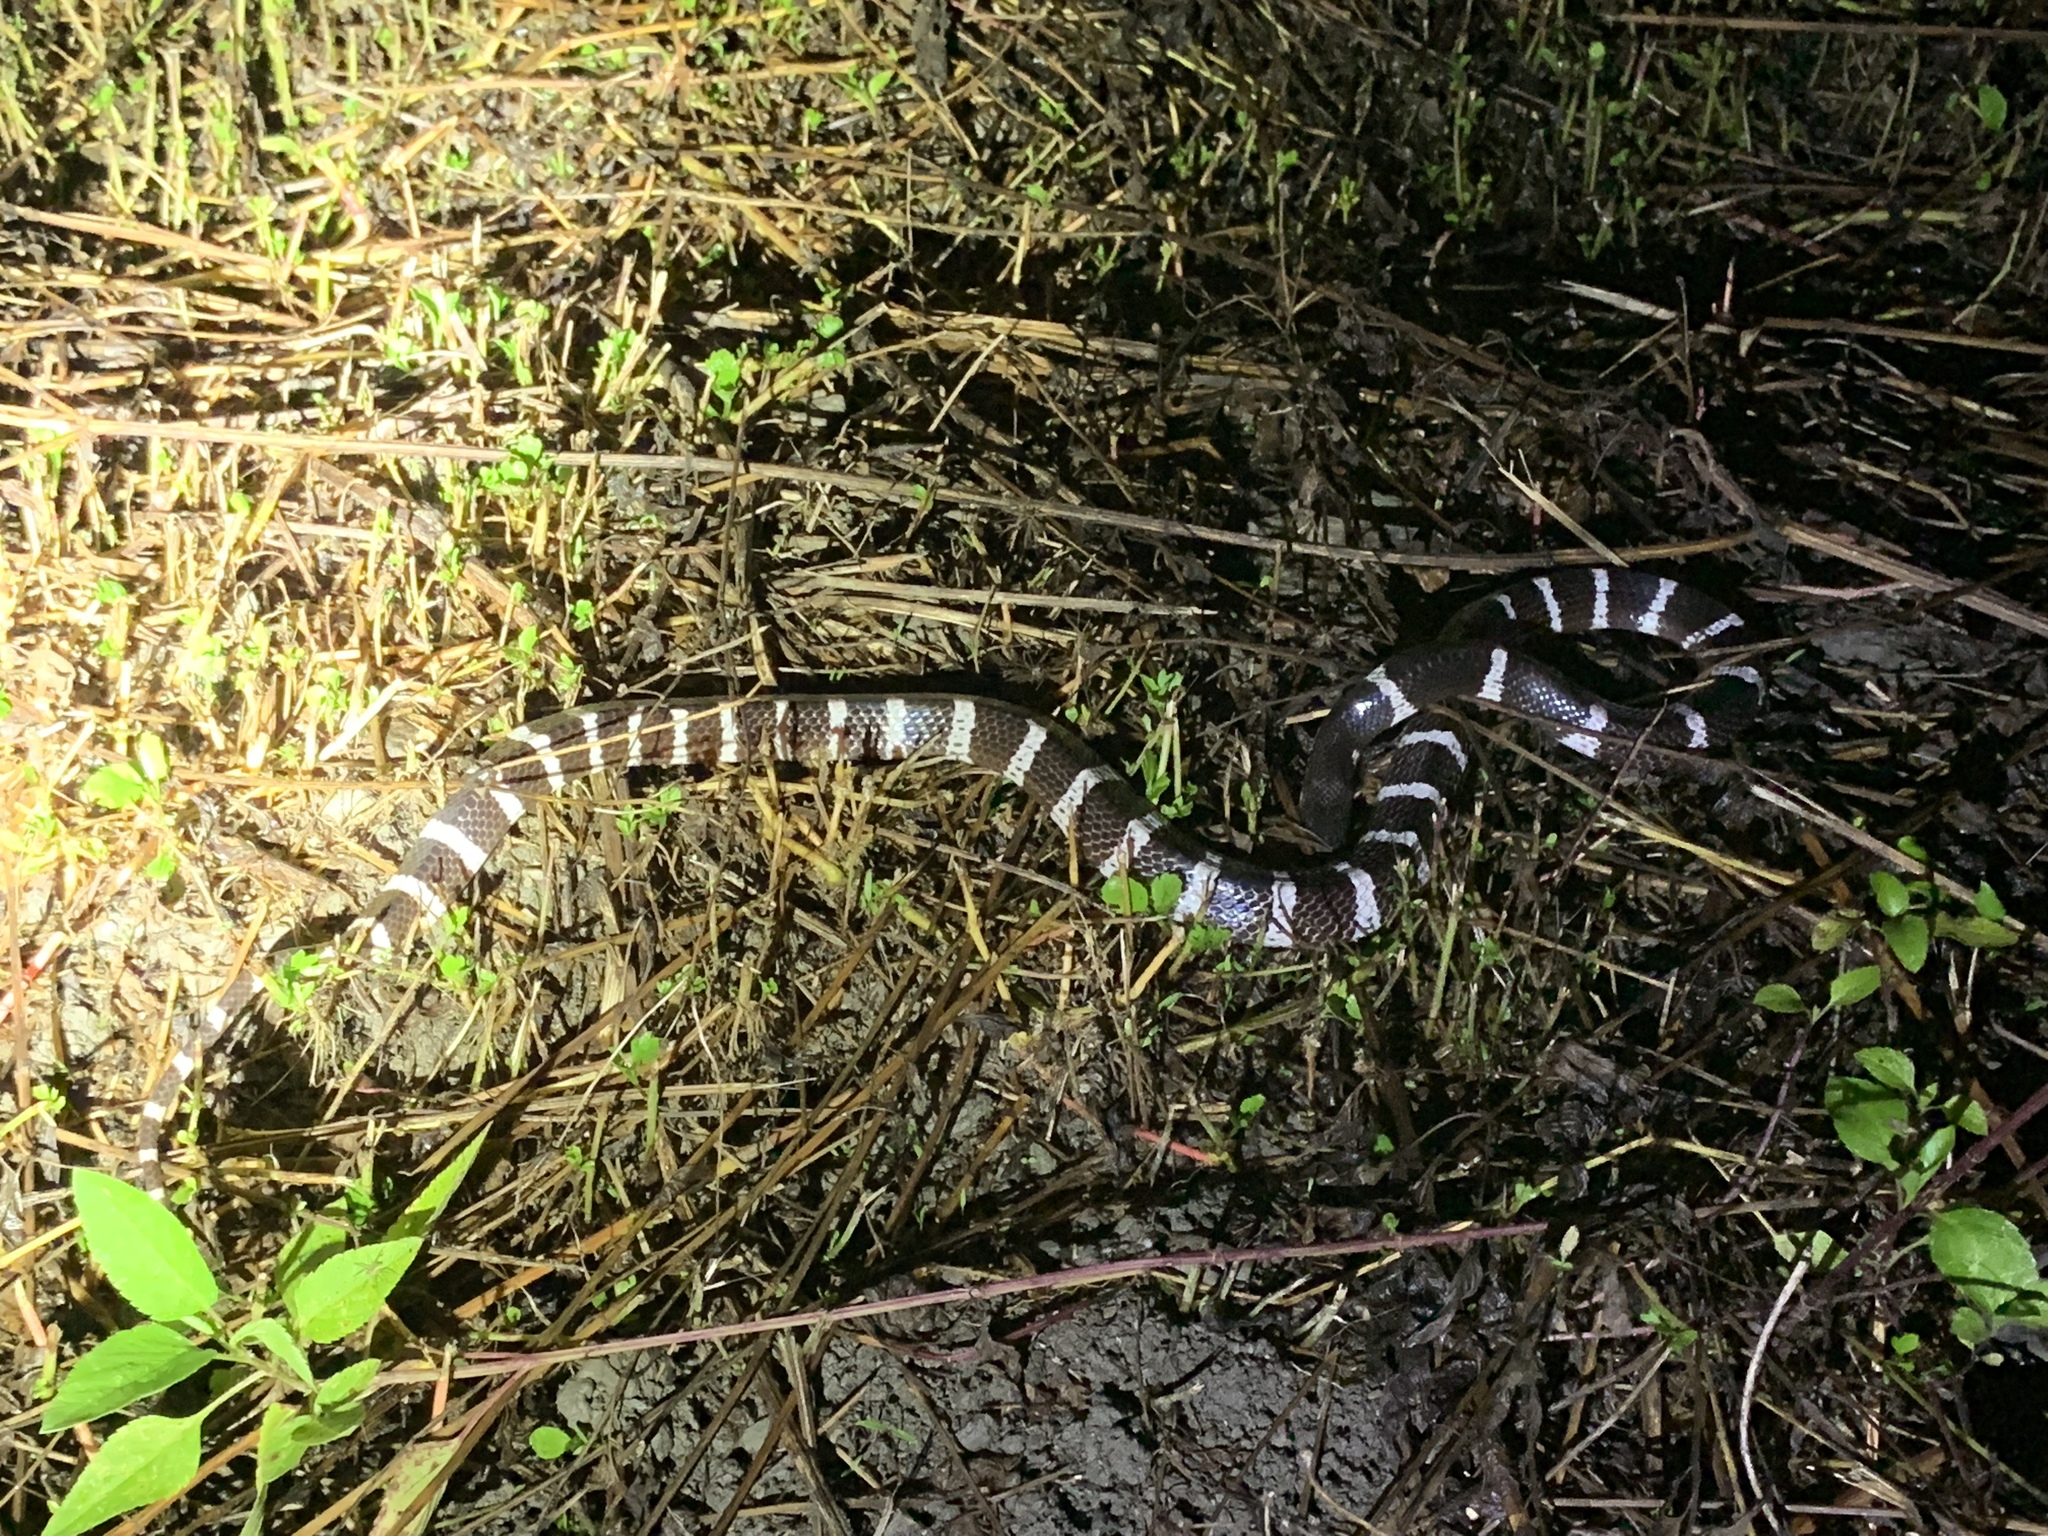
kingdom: Animalia
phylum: Chordata
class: Squamata
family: Elapidae
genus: Bungarus
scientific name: Bungarus multicinctus
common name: Many-banded krait
